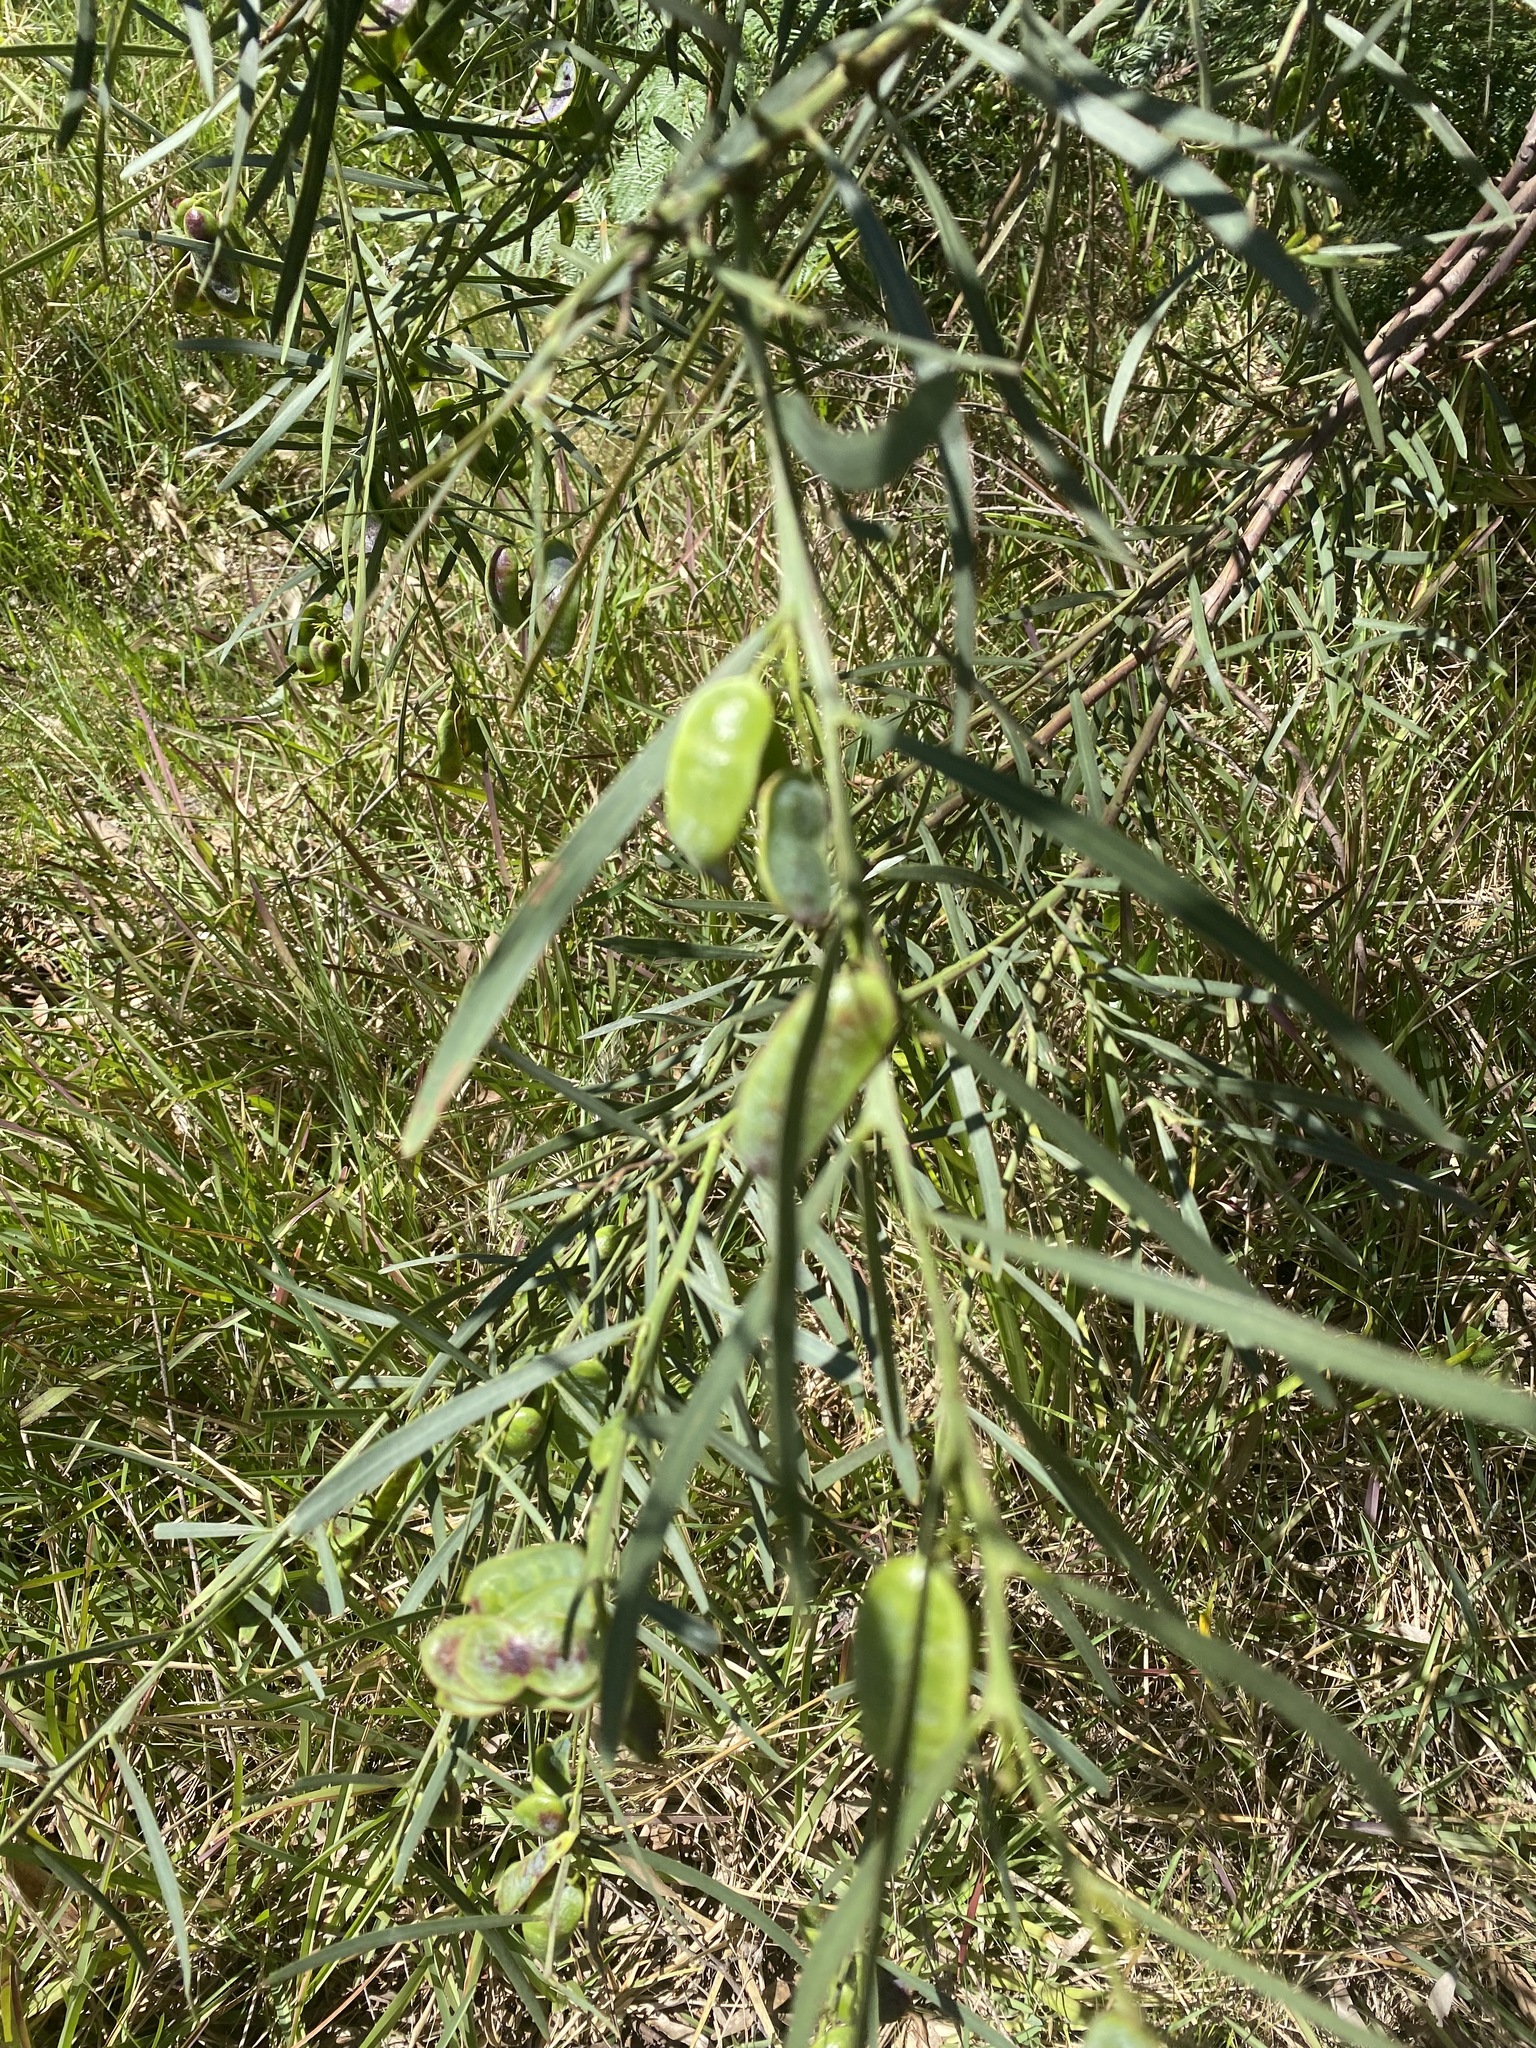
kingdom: Plantae
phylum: Tracheophyta
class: Magnoliopsida
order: Fabales
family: Fabaceae
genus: Acacia
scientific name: Acacia suaveolens
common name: Sweet acacia
